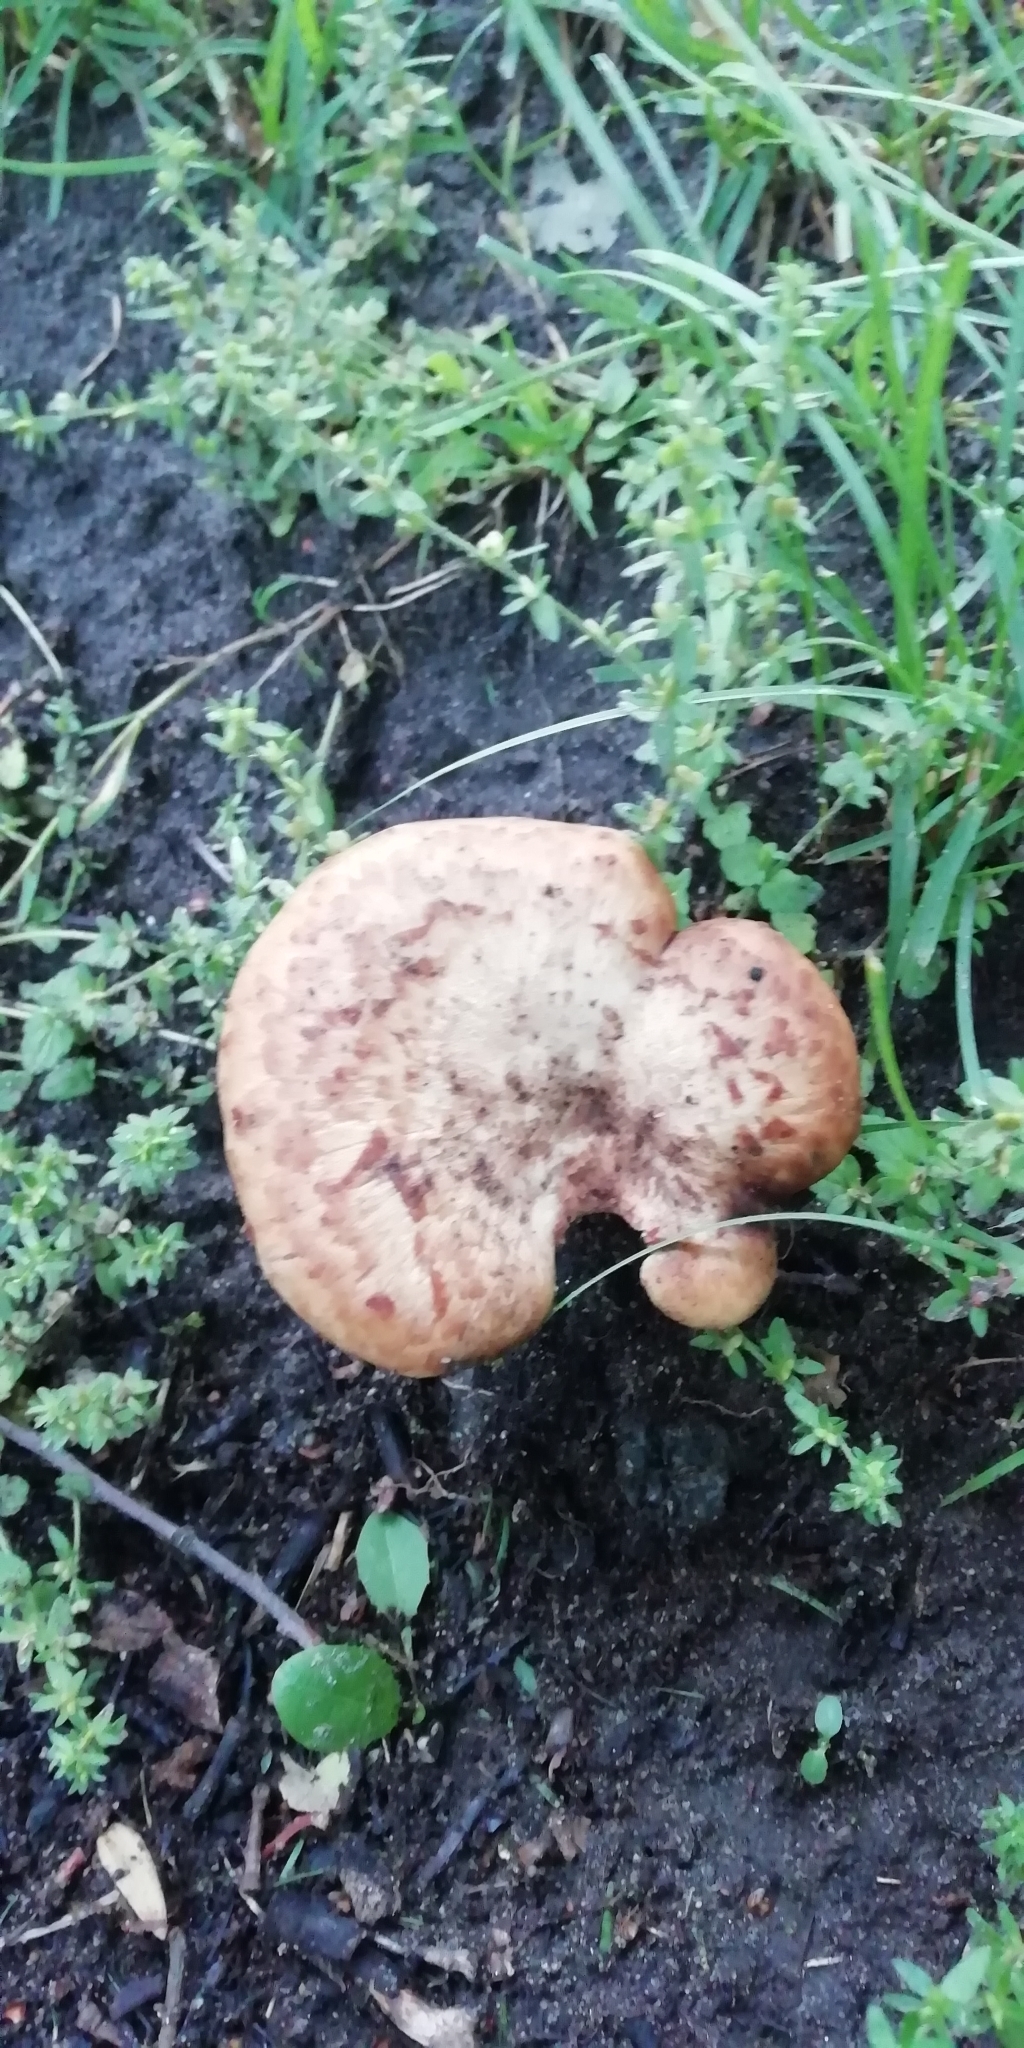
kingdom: Fungi
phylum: Basidiomycota
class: Agaricomycetes
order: Polyporales
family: Polyporaceae
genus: Cerioporus
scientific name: Cerioporus squamosus
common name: Dryad's saddle
